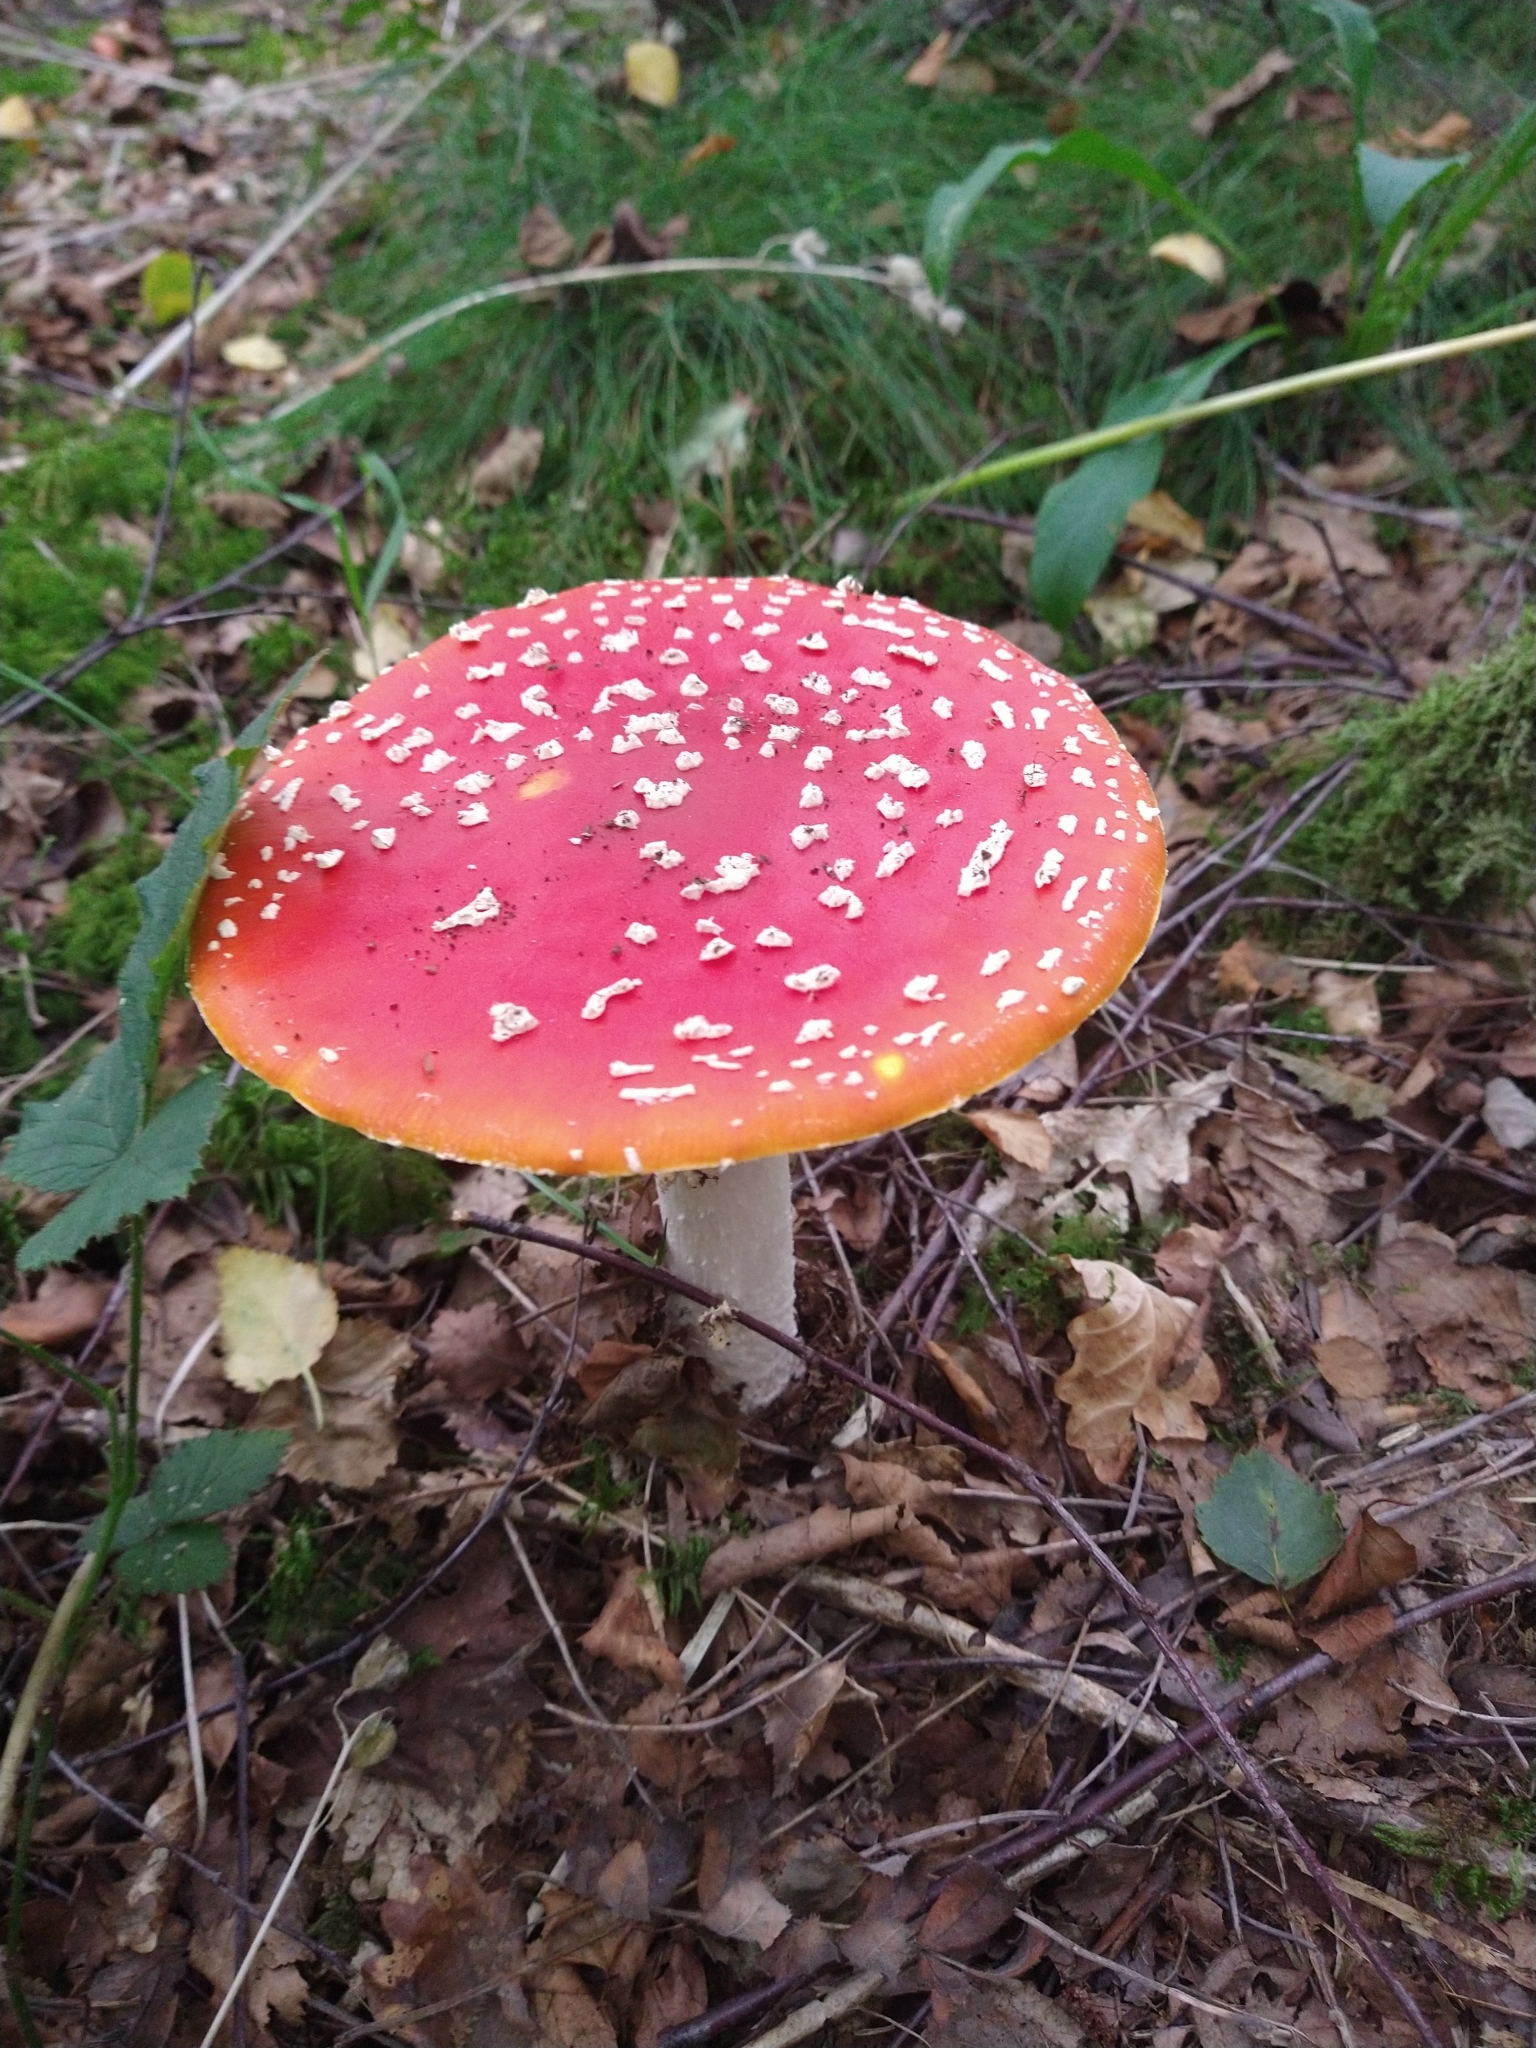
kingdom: Fungi
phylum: Basidiomycota
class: Agaricomycetes
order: Agaricales
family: Amanitaceae
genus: Amanita
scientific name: Amanita muscaria
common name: Fly agaric
